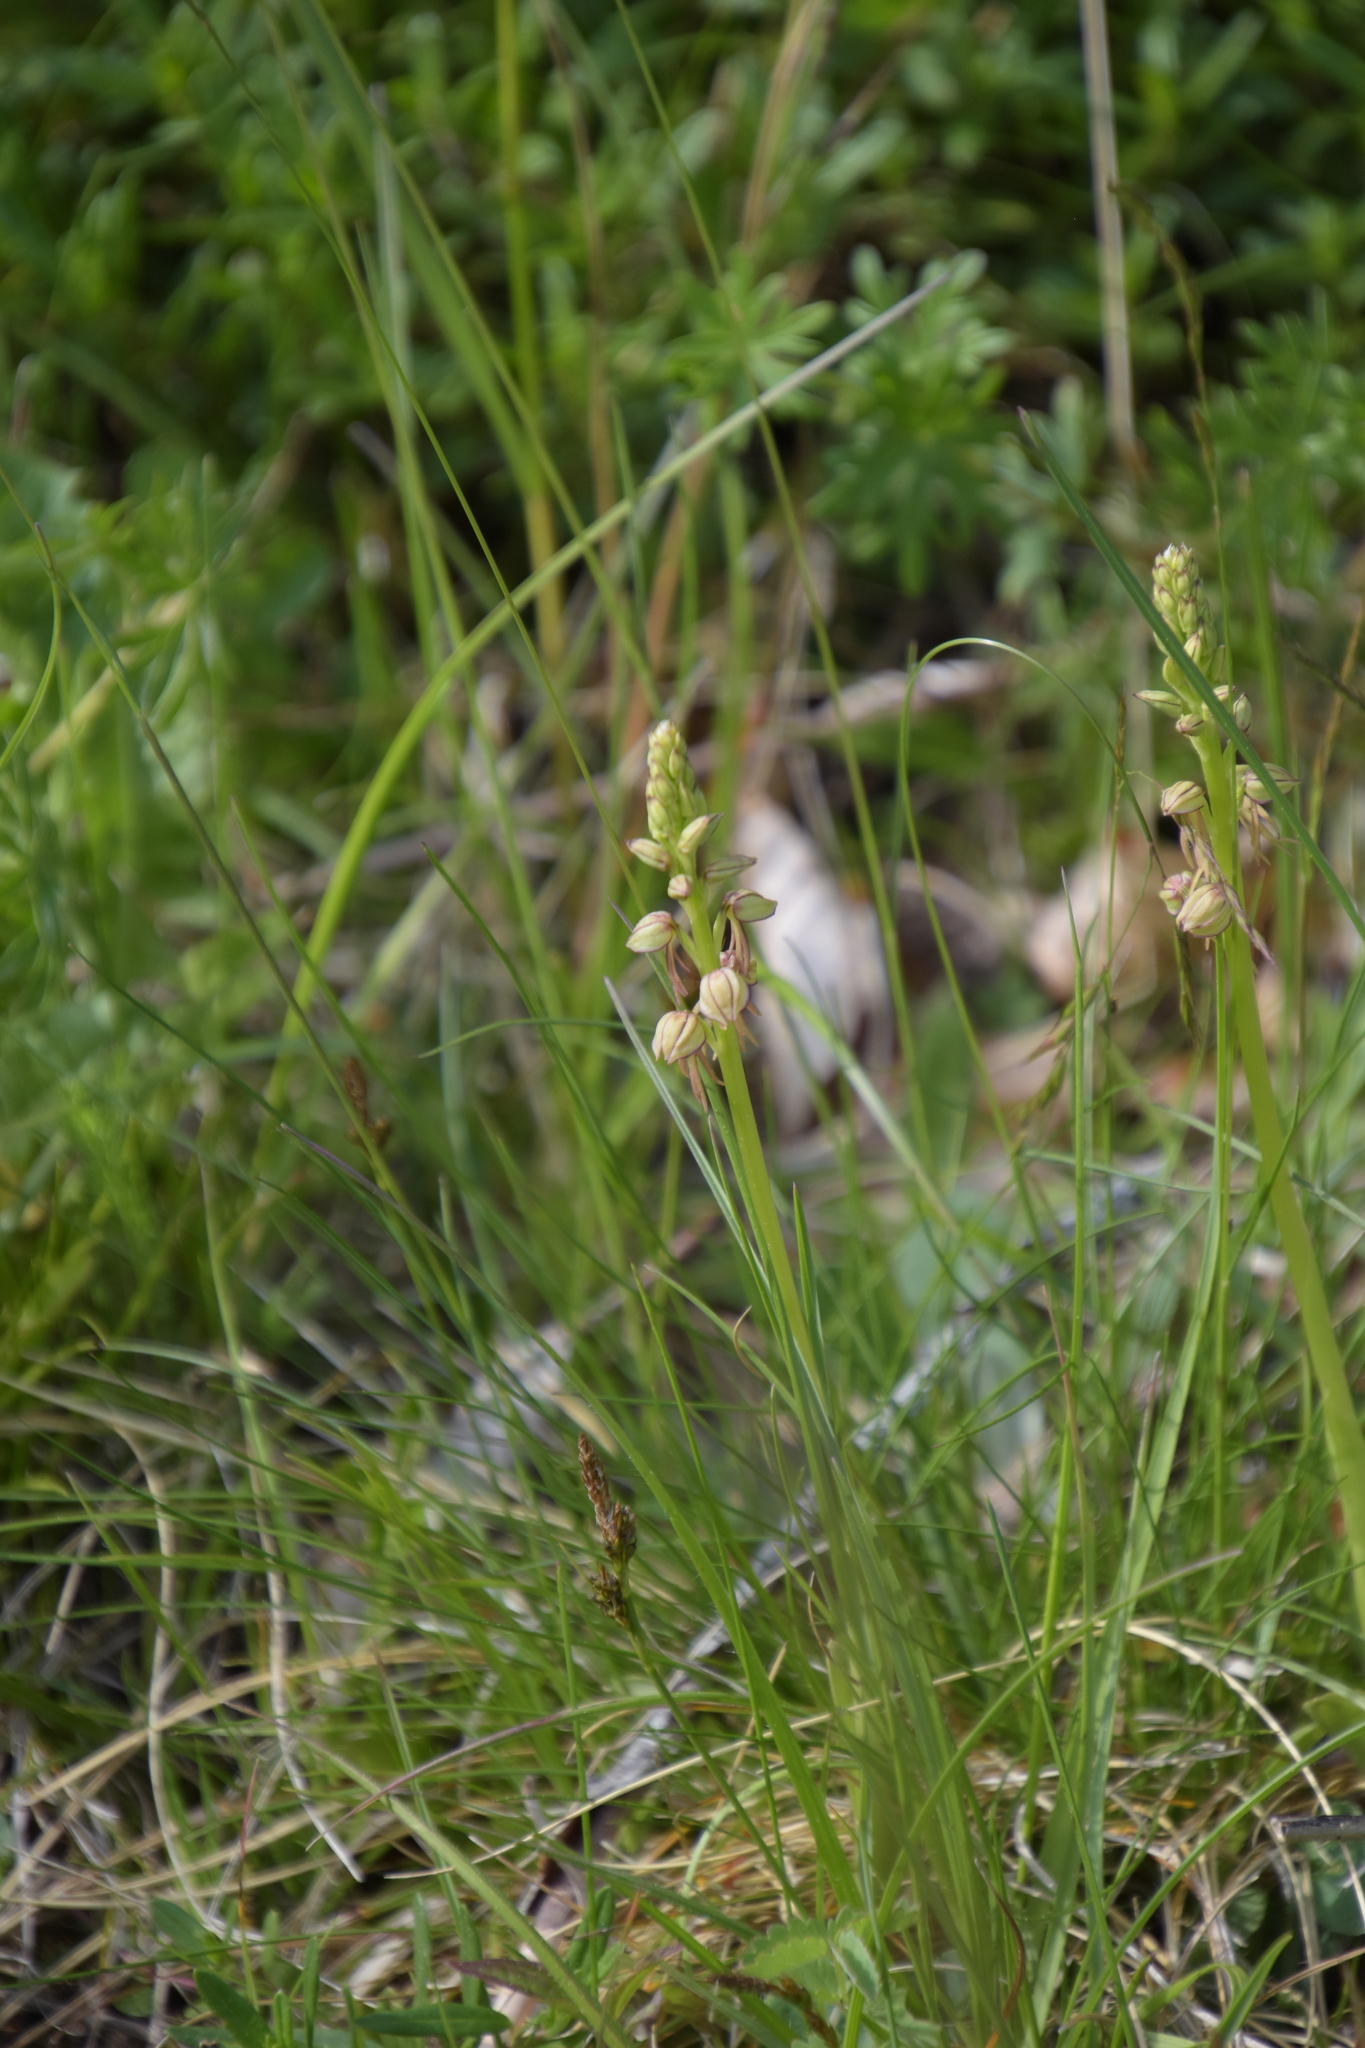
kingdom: Plantae
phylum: Tracheophyta
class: Liliopsida
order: Asparagales
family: Orchidaceae
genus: Orchis
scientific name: Orchis anthropophora
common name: Man orchid
